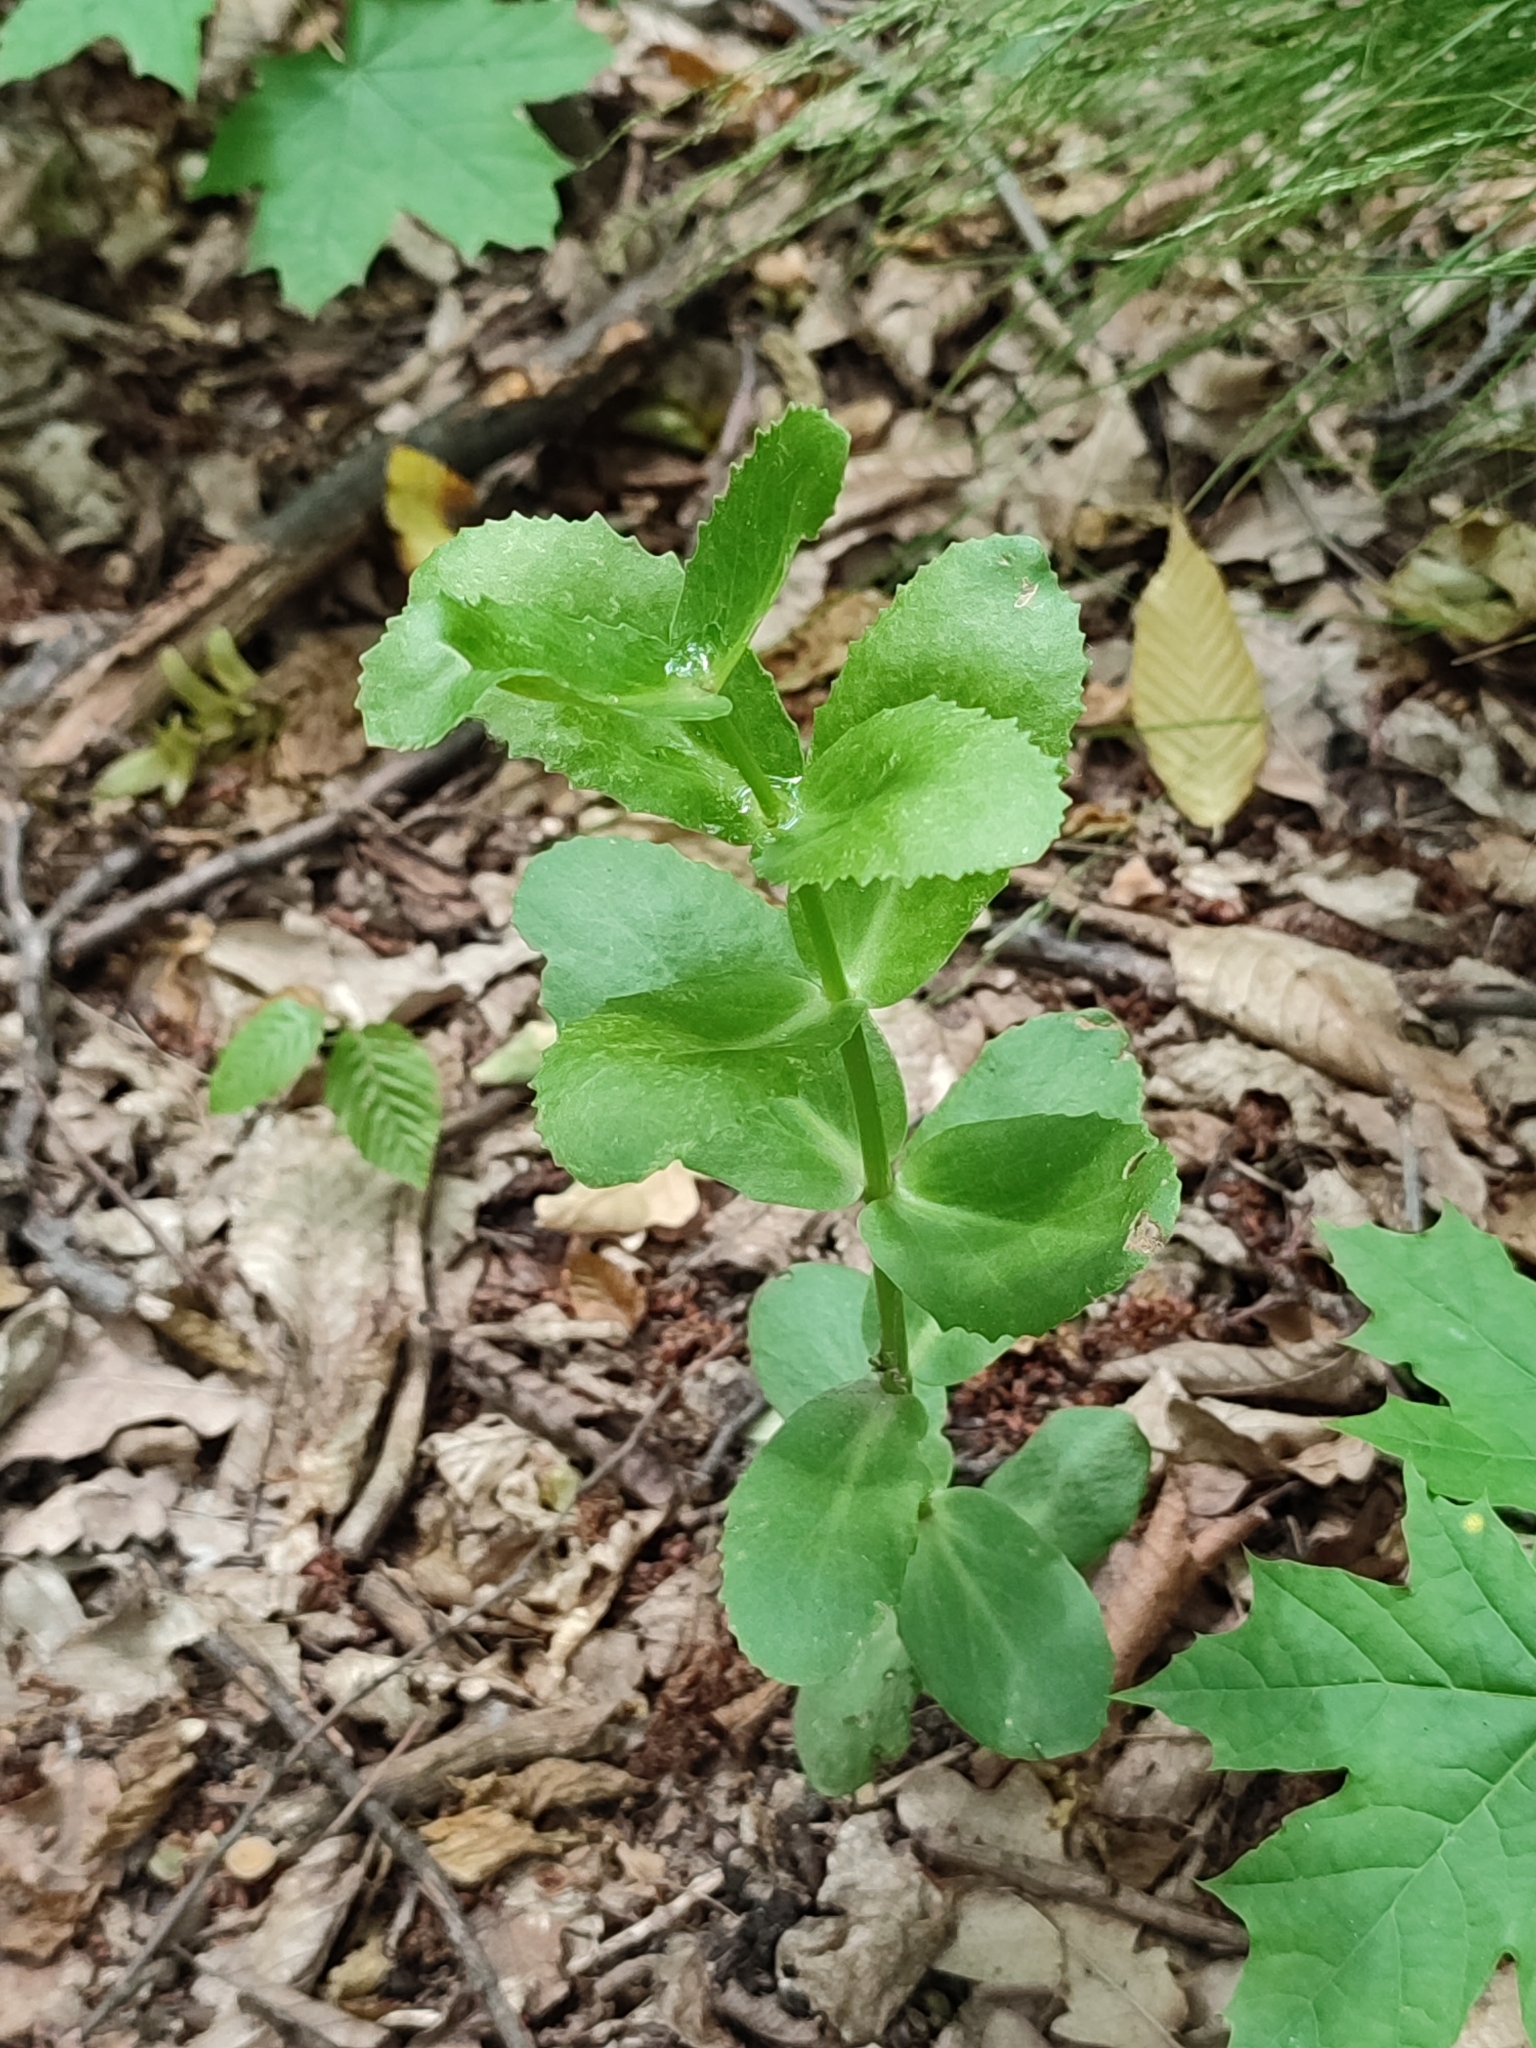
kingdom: Plantae
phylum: Tracheophyta
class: Magnoliopsida
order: Saxifragales
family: Crassulaceae
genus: Hylotelephium
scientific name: Hylotelephium maximum
